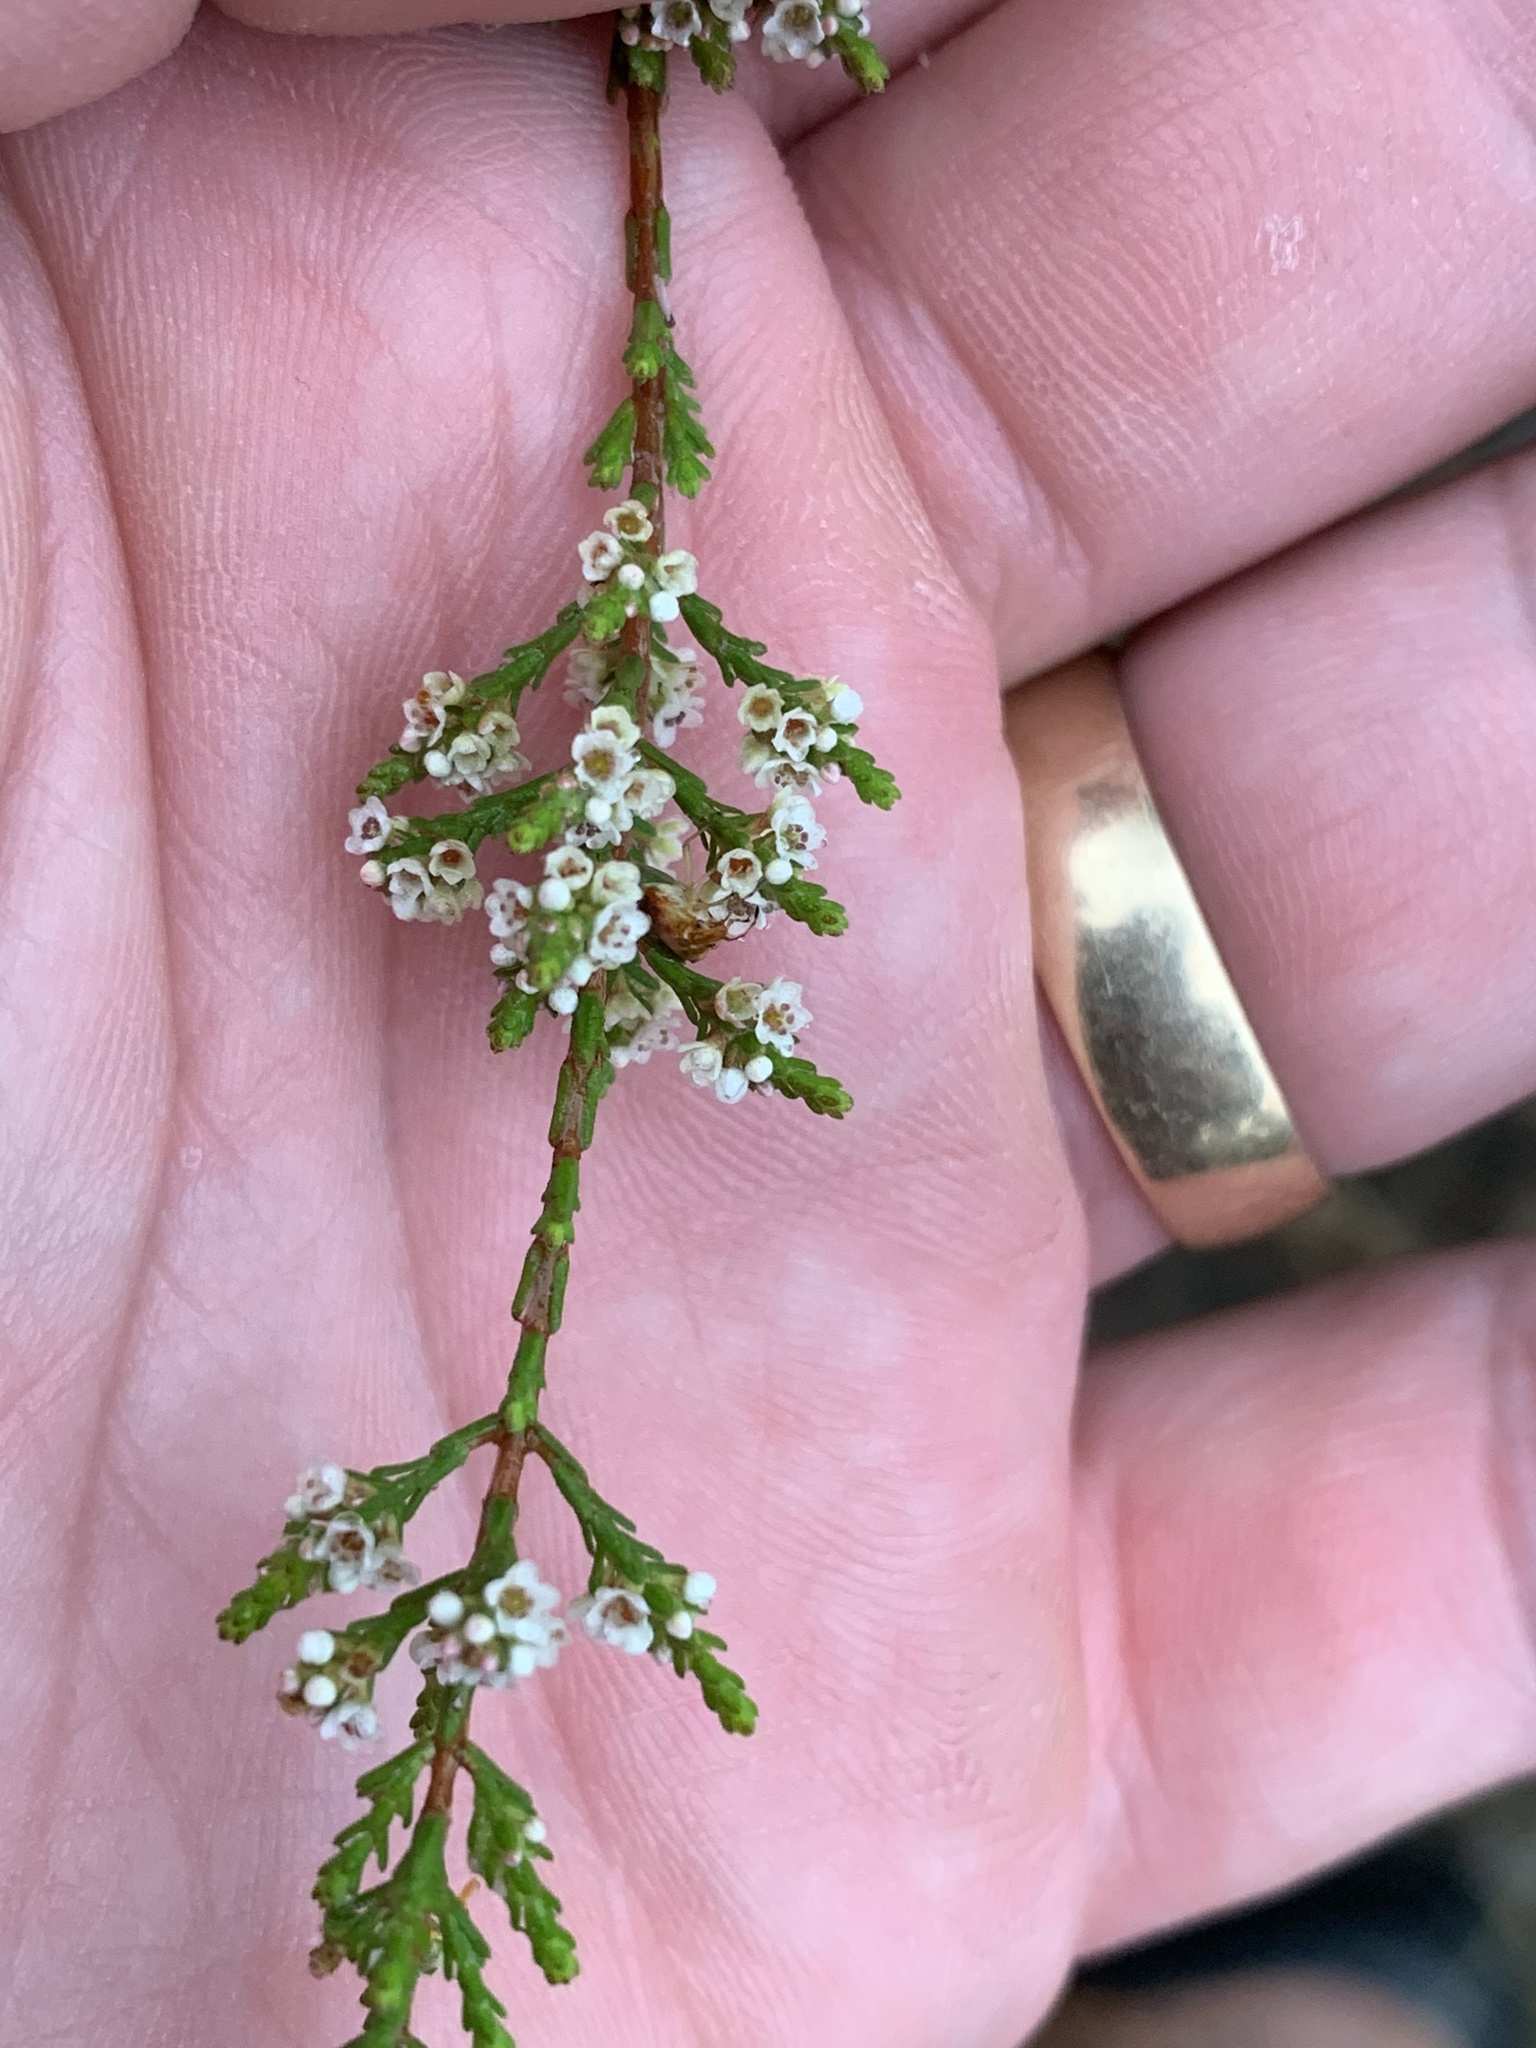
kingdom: Plantae
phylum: Tracheophyta
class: Magnoliopsida
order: Myrtales
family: Myrtaceae
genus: Micromyrtus
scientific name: Micromyrtus minutiflora
